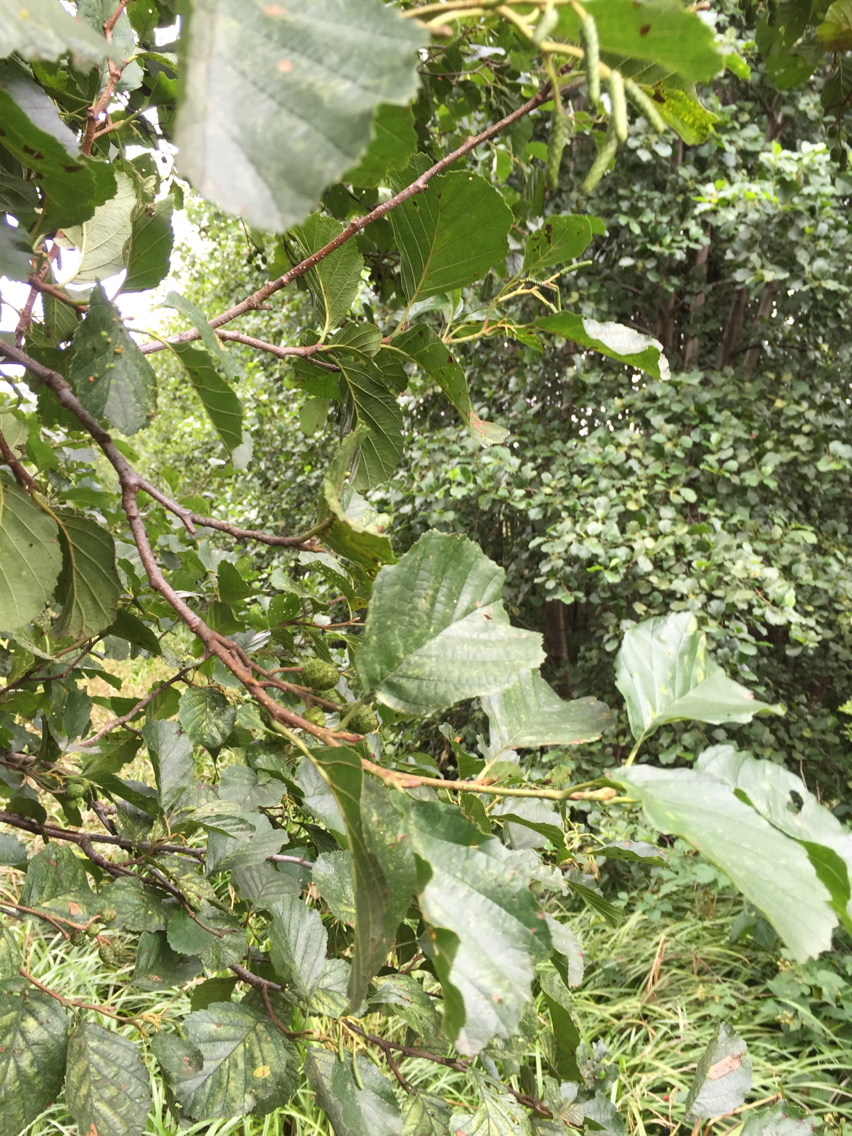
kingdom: Plantae
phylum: Tracheophyta
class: Magnoliopsida
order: Fagales
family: Betulaceae
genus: Alnus
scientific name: Alnus glutinosa
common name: Black alder
